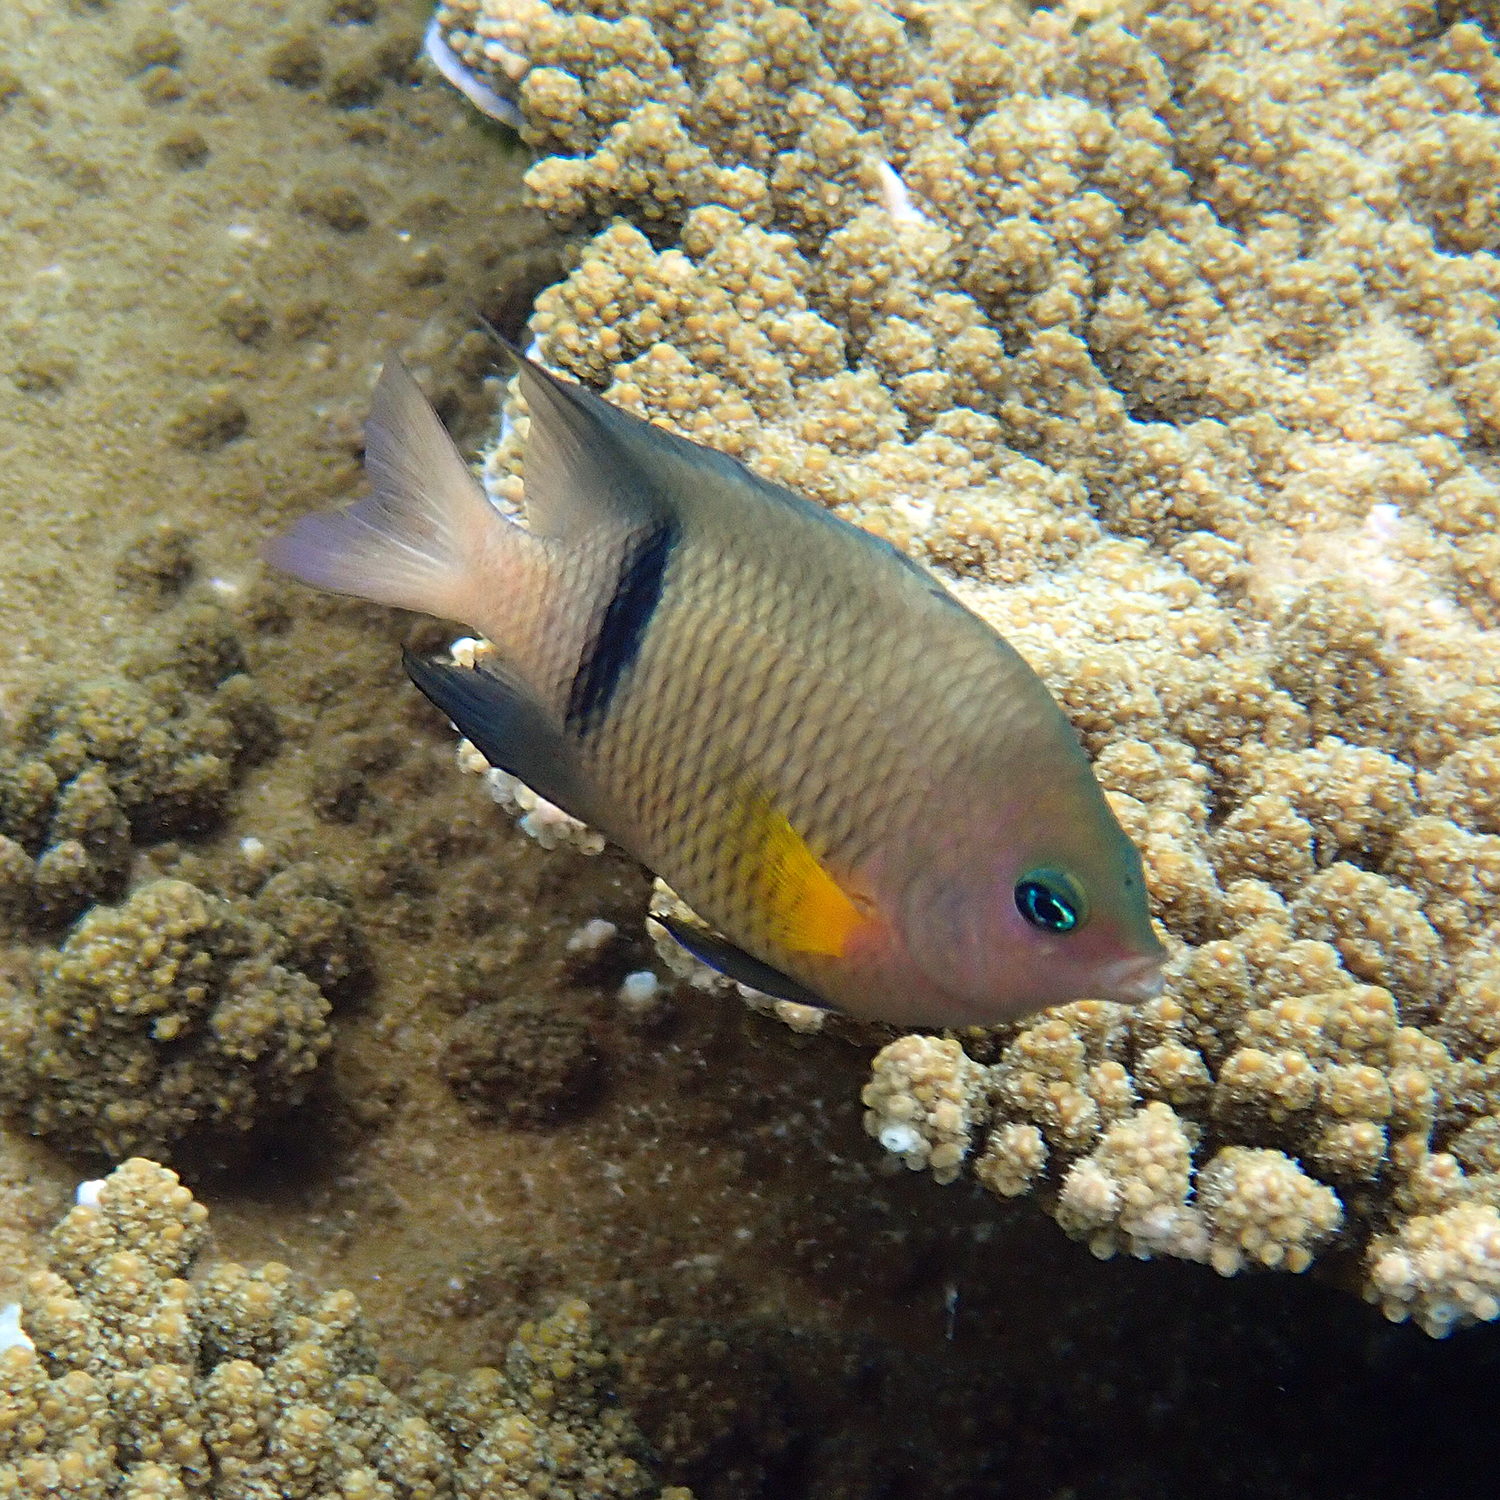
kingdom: Animalia
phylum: Chordata
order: Perciformes
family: Pomacentridae
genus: Plectroglyphidodon
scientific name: Plectroglyphidodon dickii
